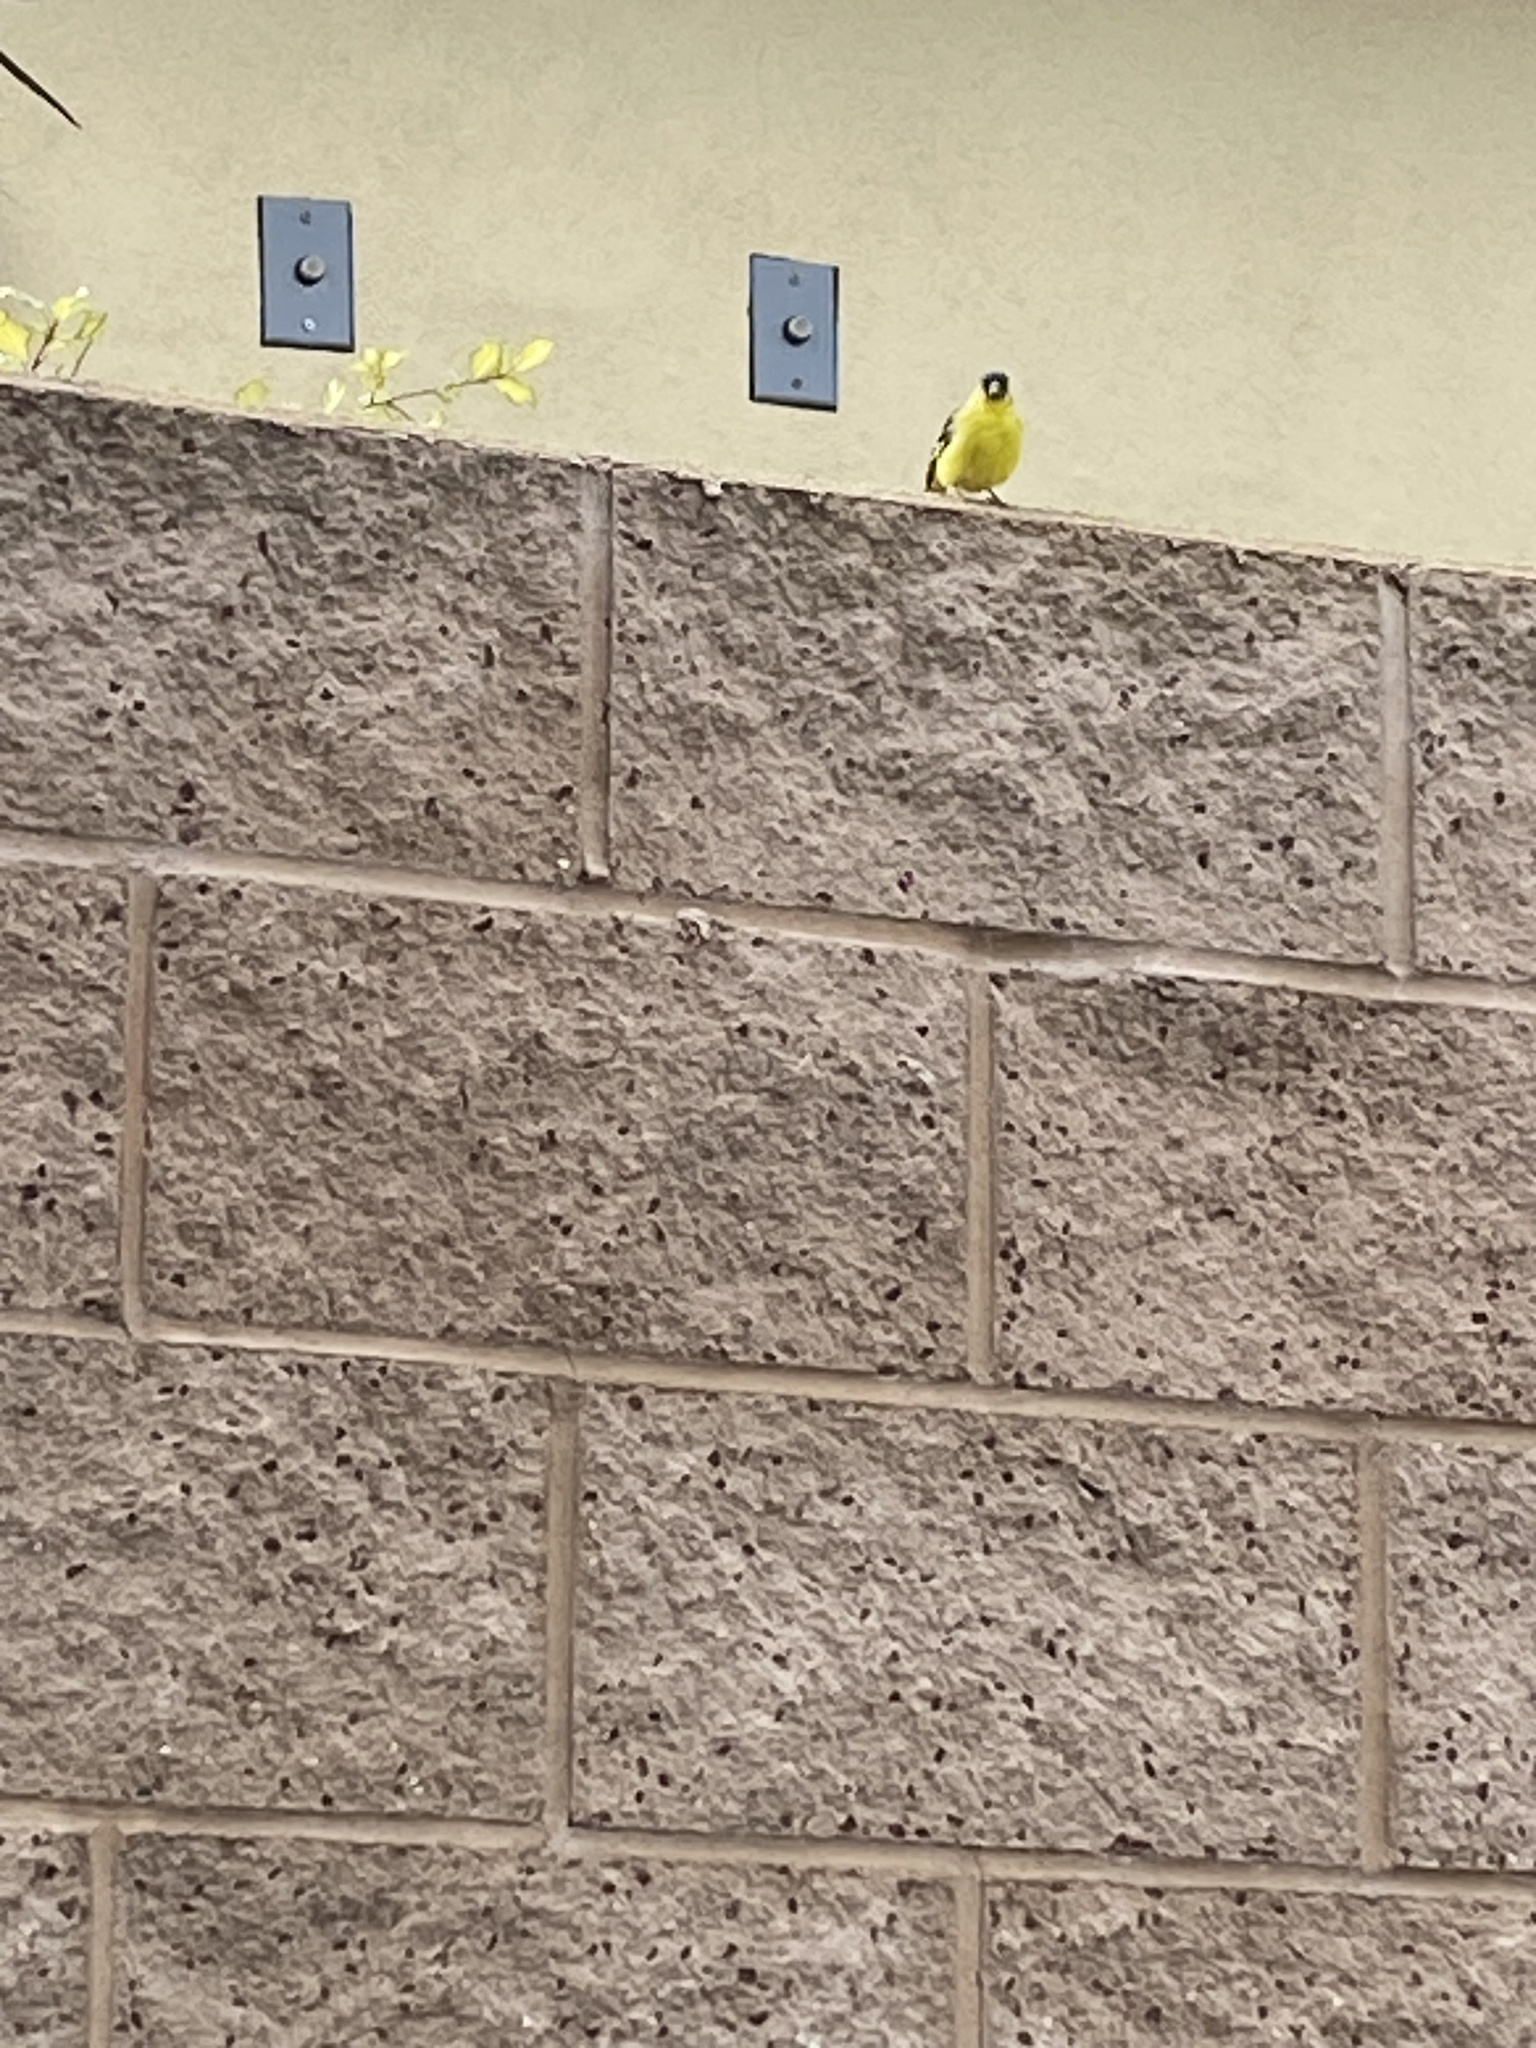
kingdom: Animalia
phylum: Chordata
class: Aves
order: Passeriformes
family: Fringillidae
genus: Spinus
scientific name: Spinus psaltria
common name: Lesser goldfinch
